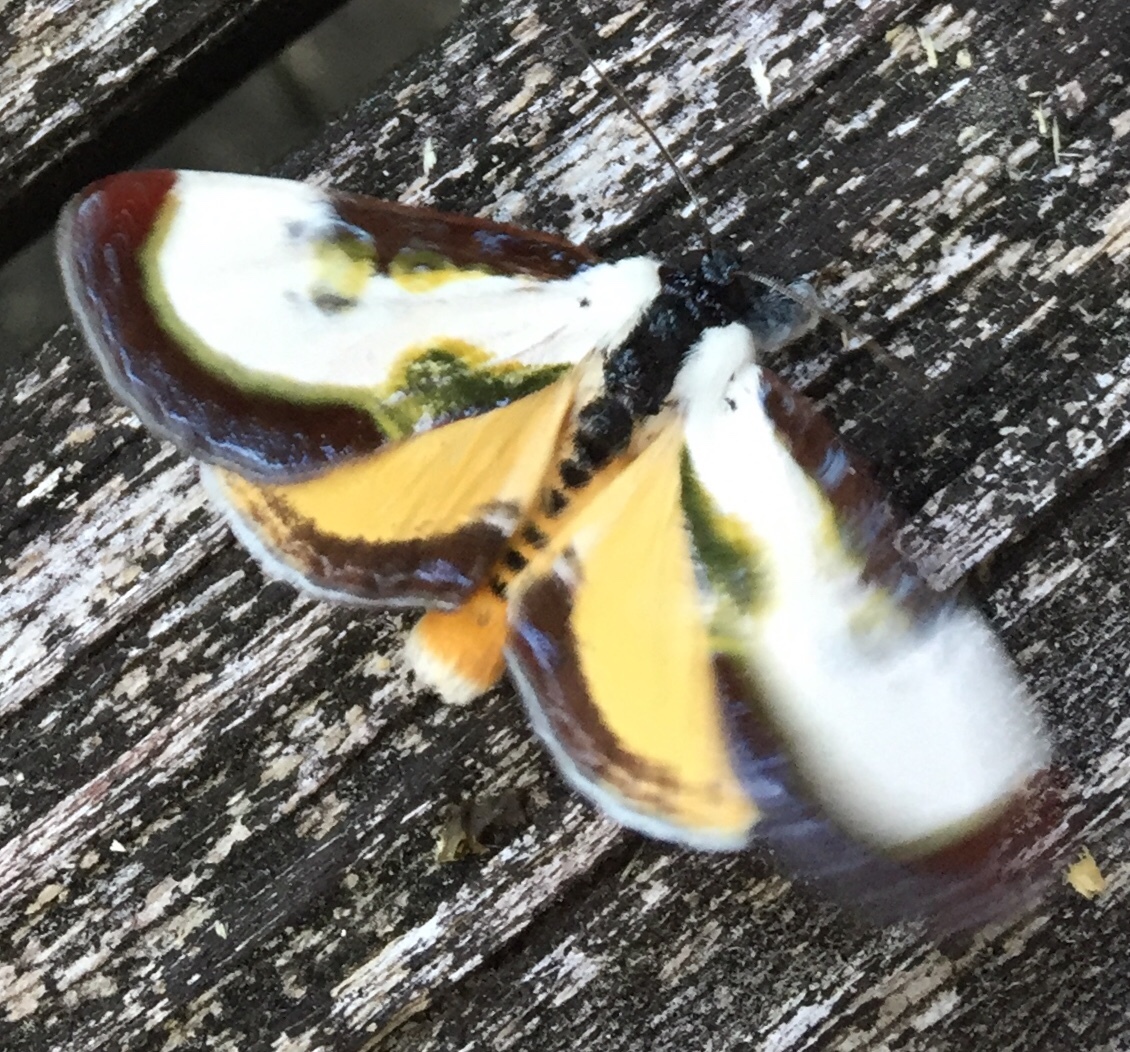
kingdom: Animalia
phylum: Arthropoda
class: Insecta
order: Lepidoptera
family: Noctuidae
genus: Eudryas
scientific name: Eudryas grata
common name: Beautiful wood-nymph
